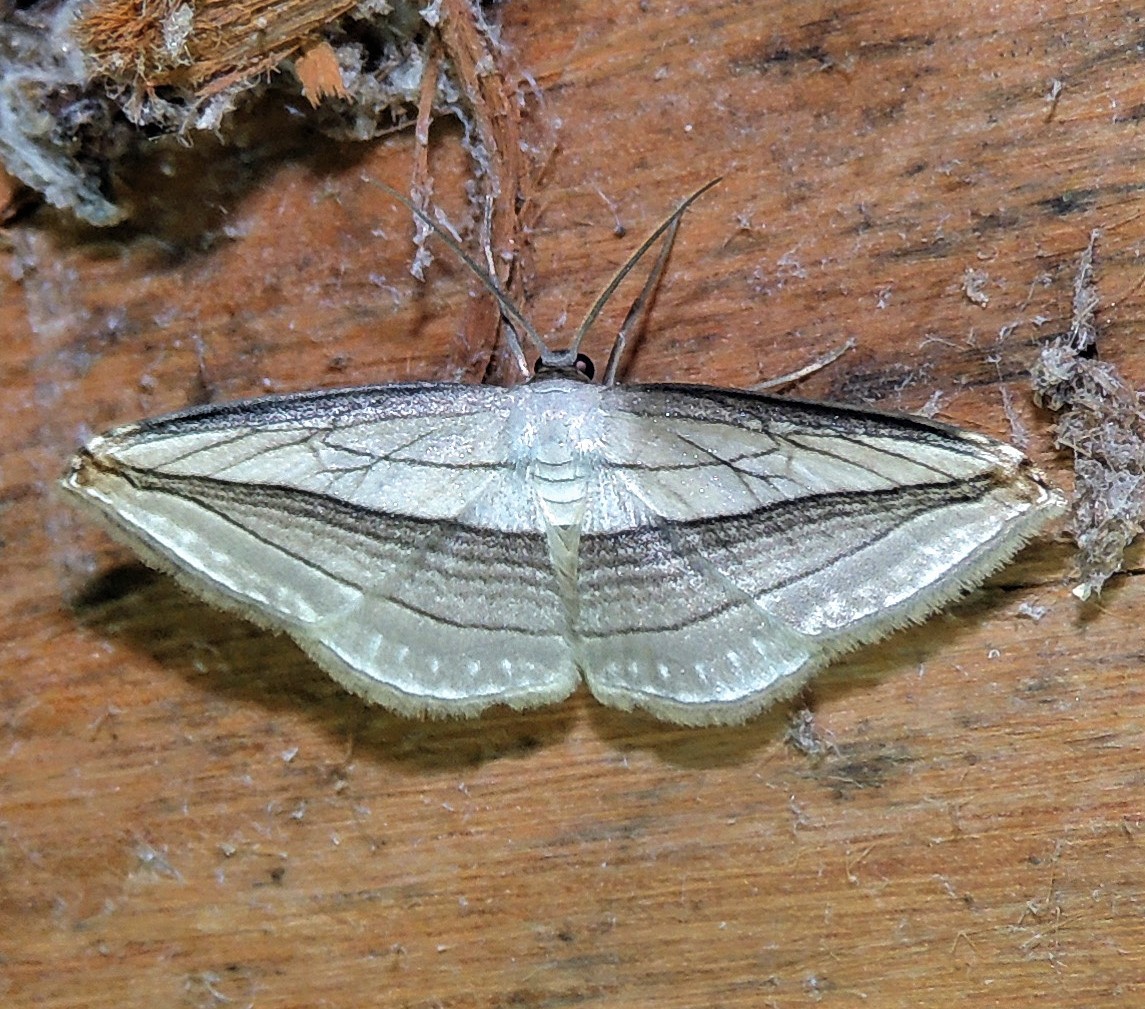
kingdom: Animalia
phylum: Arthropoda
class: Insecta
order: Lepidoptera
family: Geometridae
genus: Arcobara
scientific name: Arcobara tergeminaria
